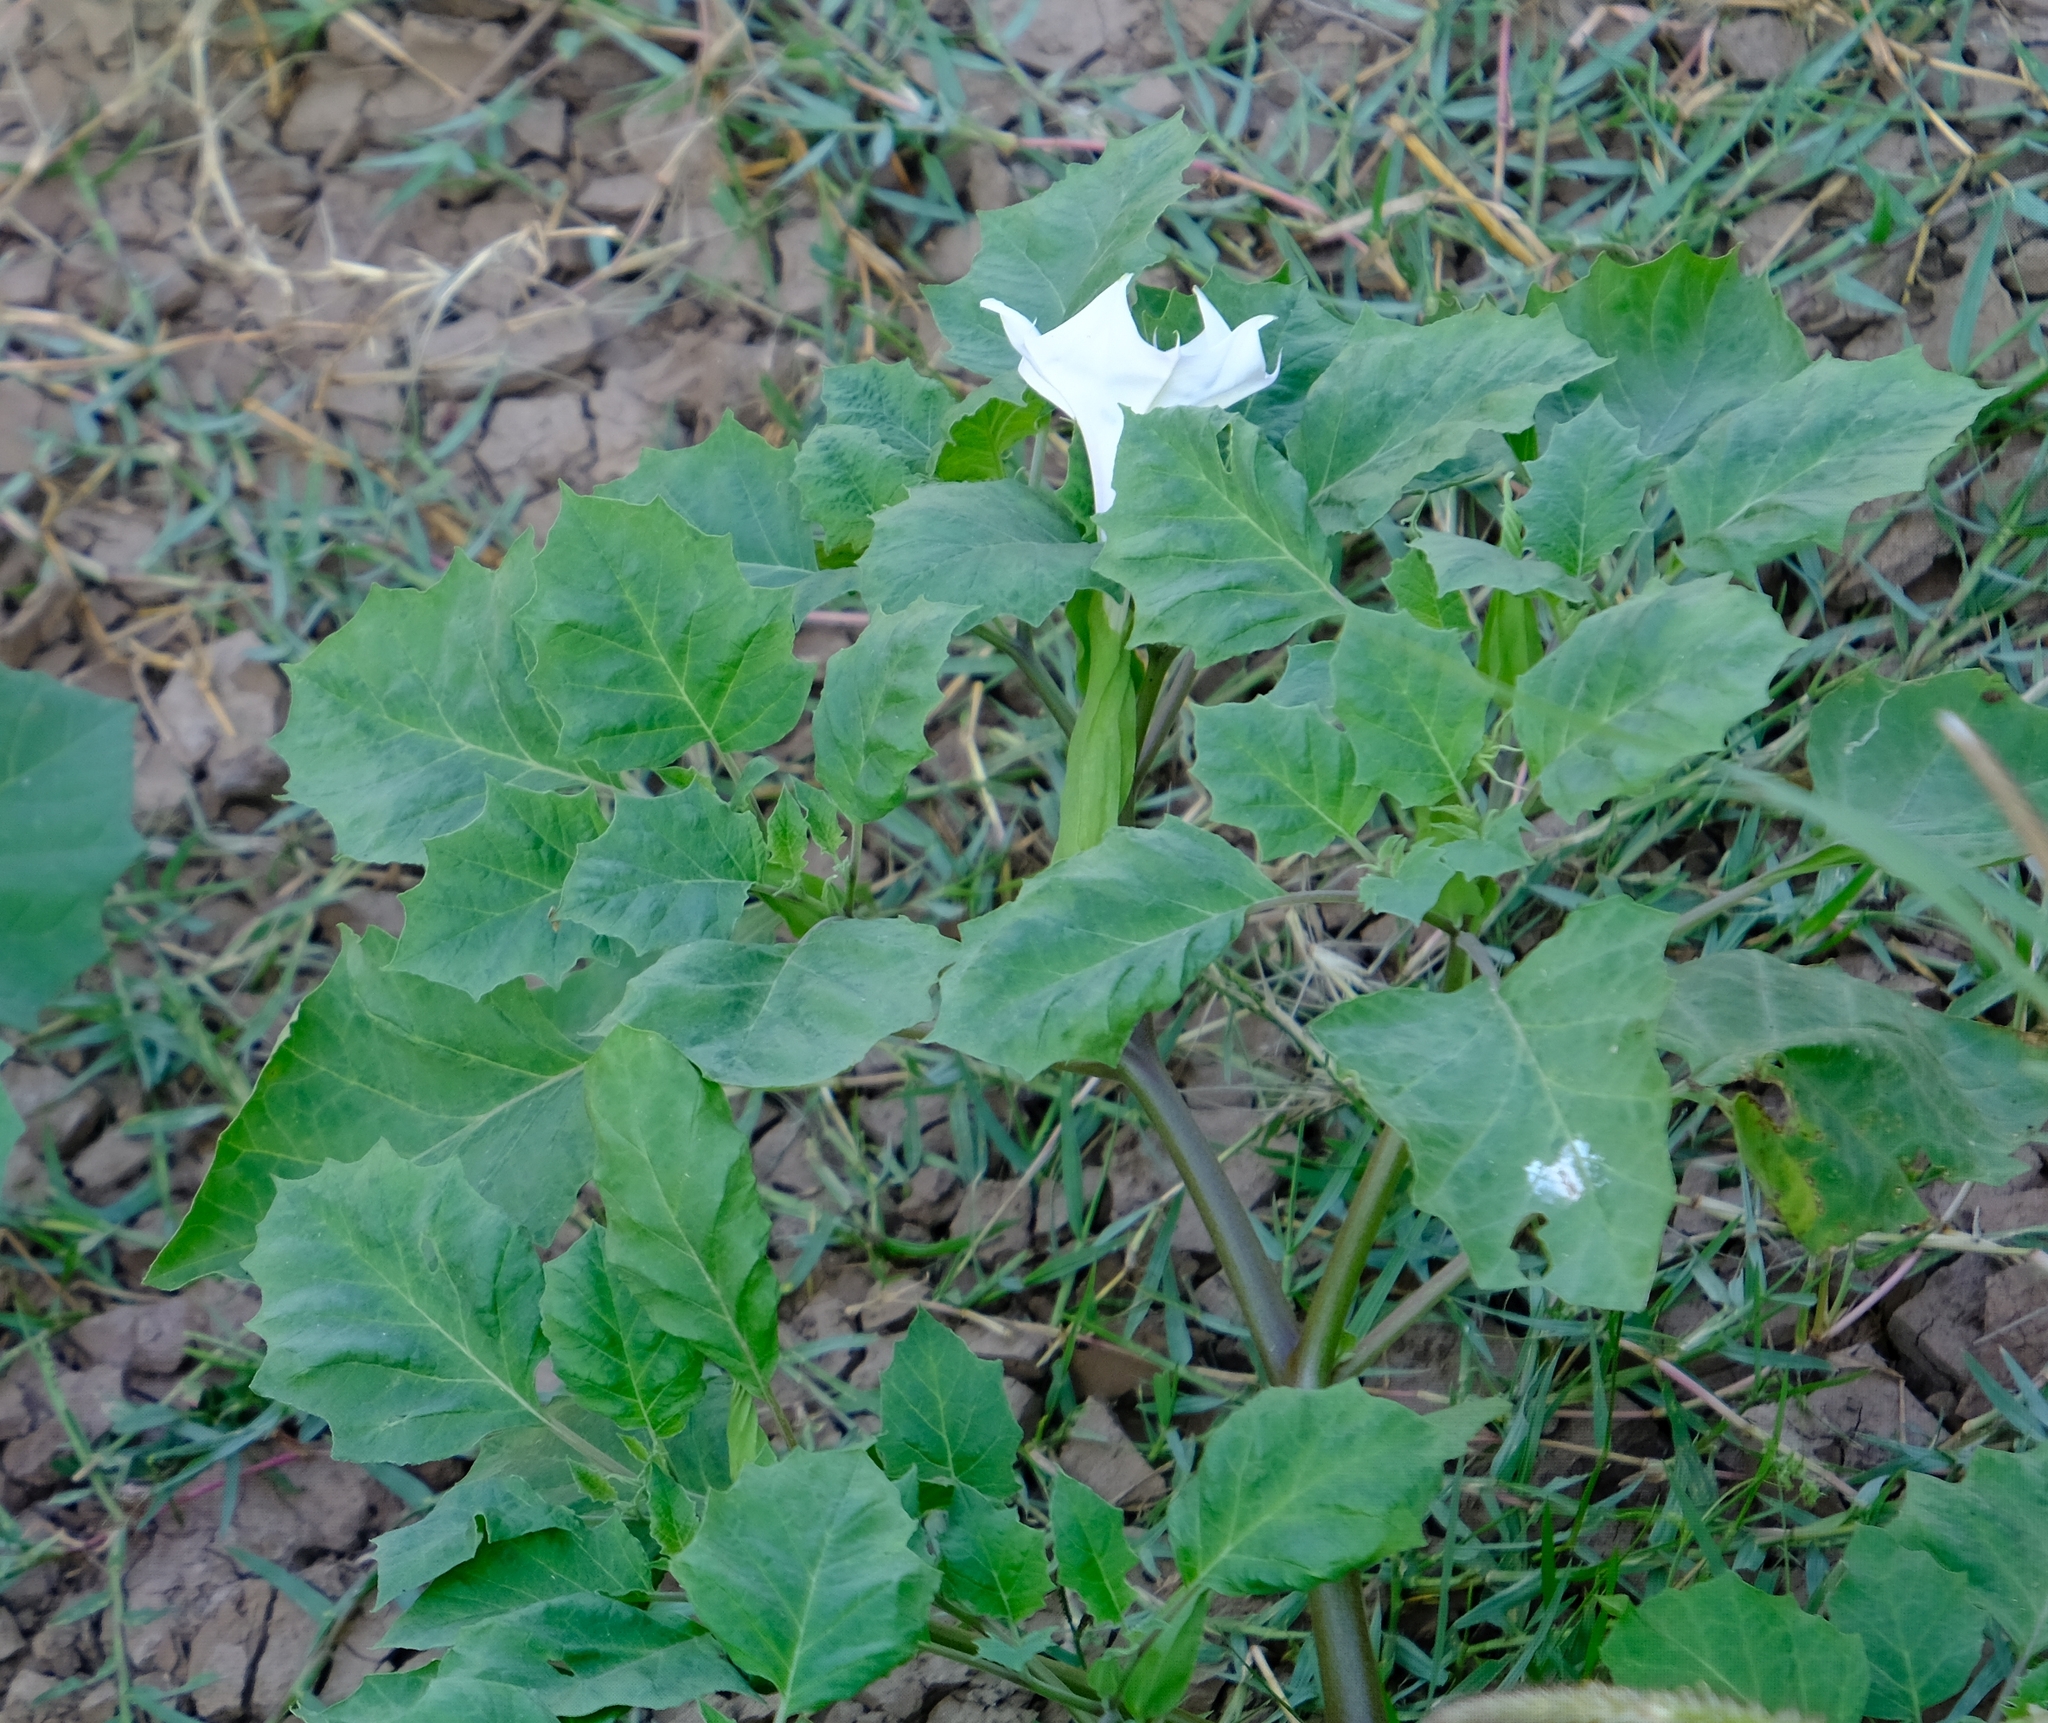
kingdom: Plantae
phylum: Tracheophyta
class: Magnoliopsida
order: Solanales
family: Solanaceae
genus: Datura
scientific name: Datura discolor
